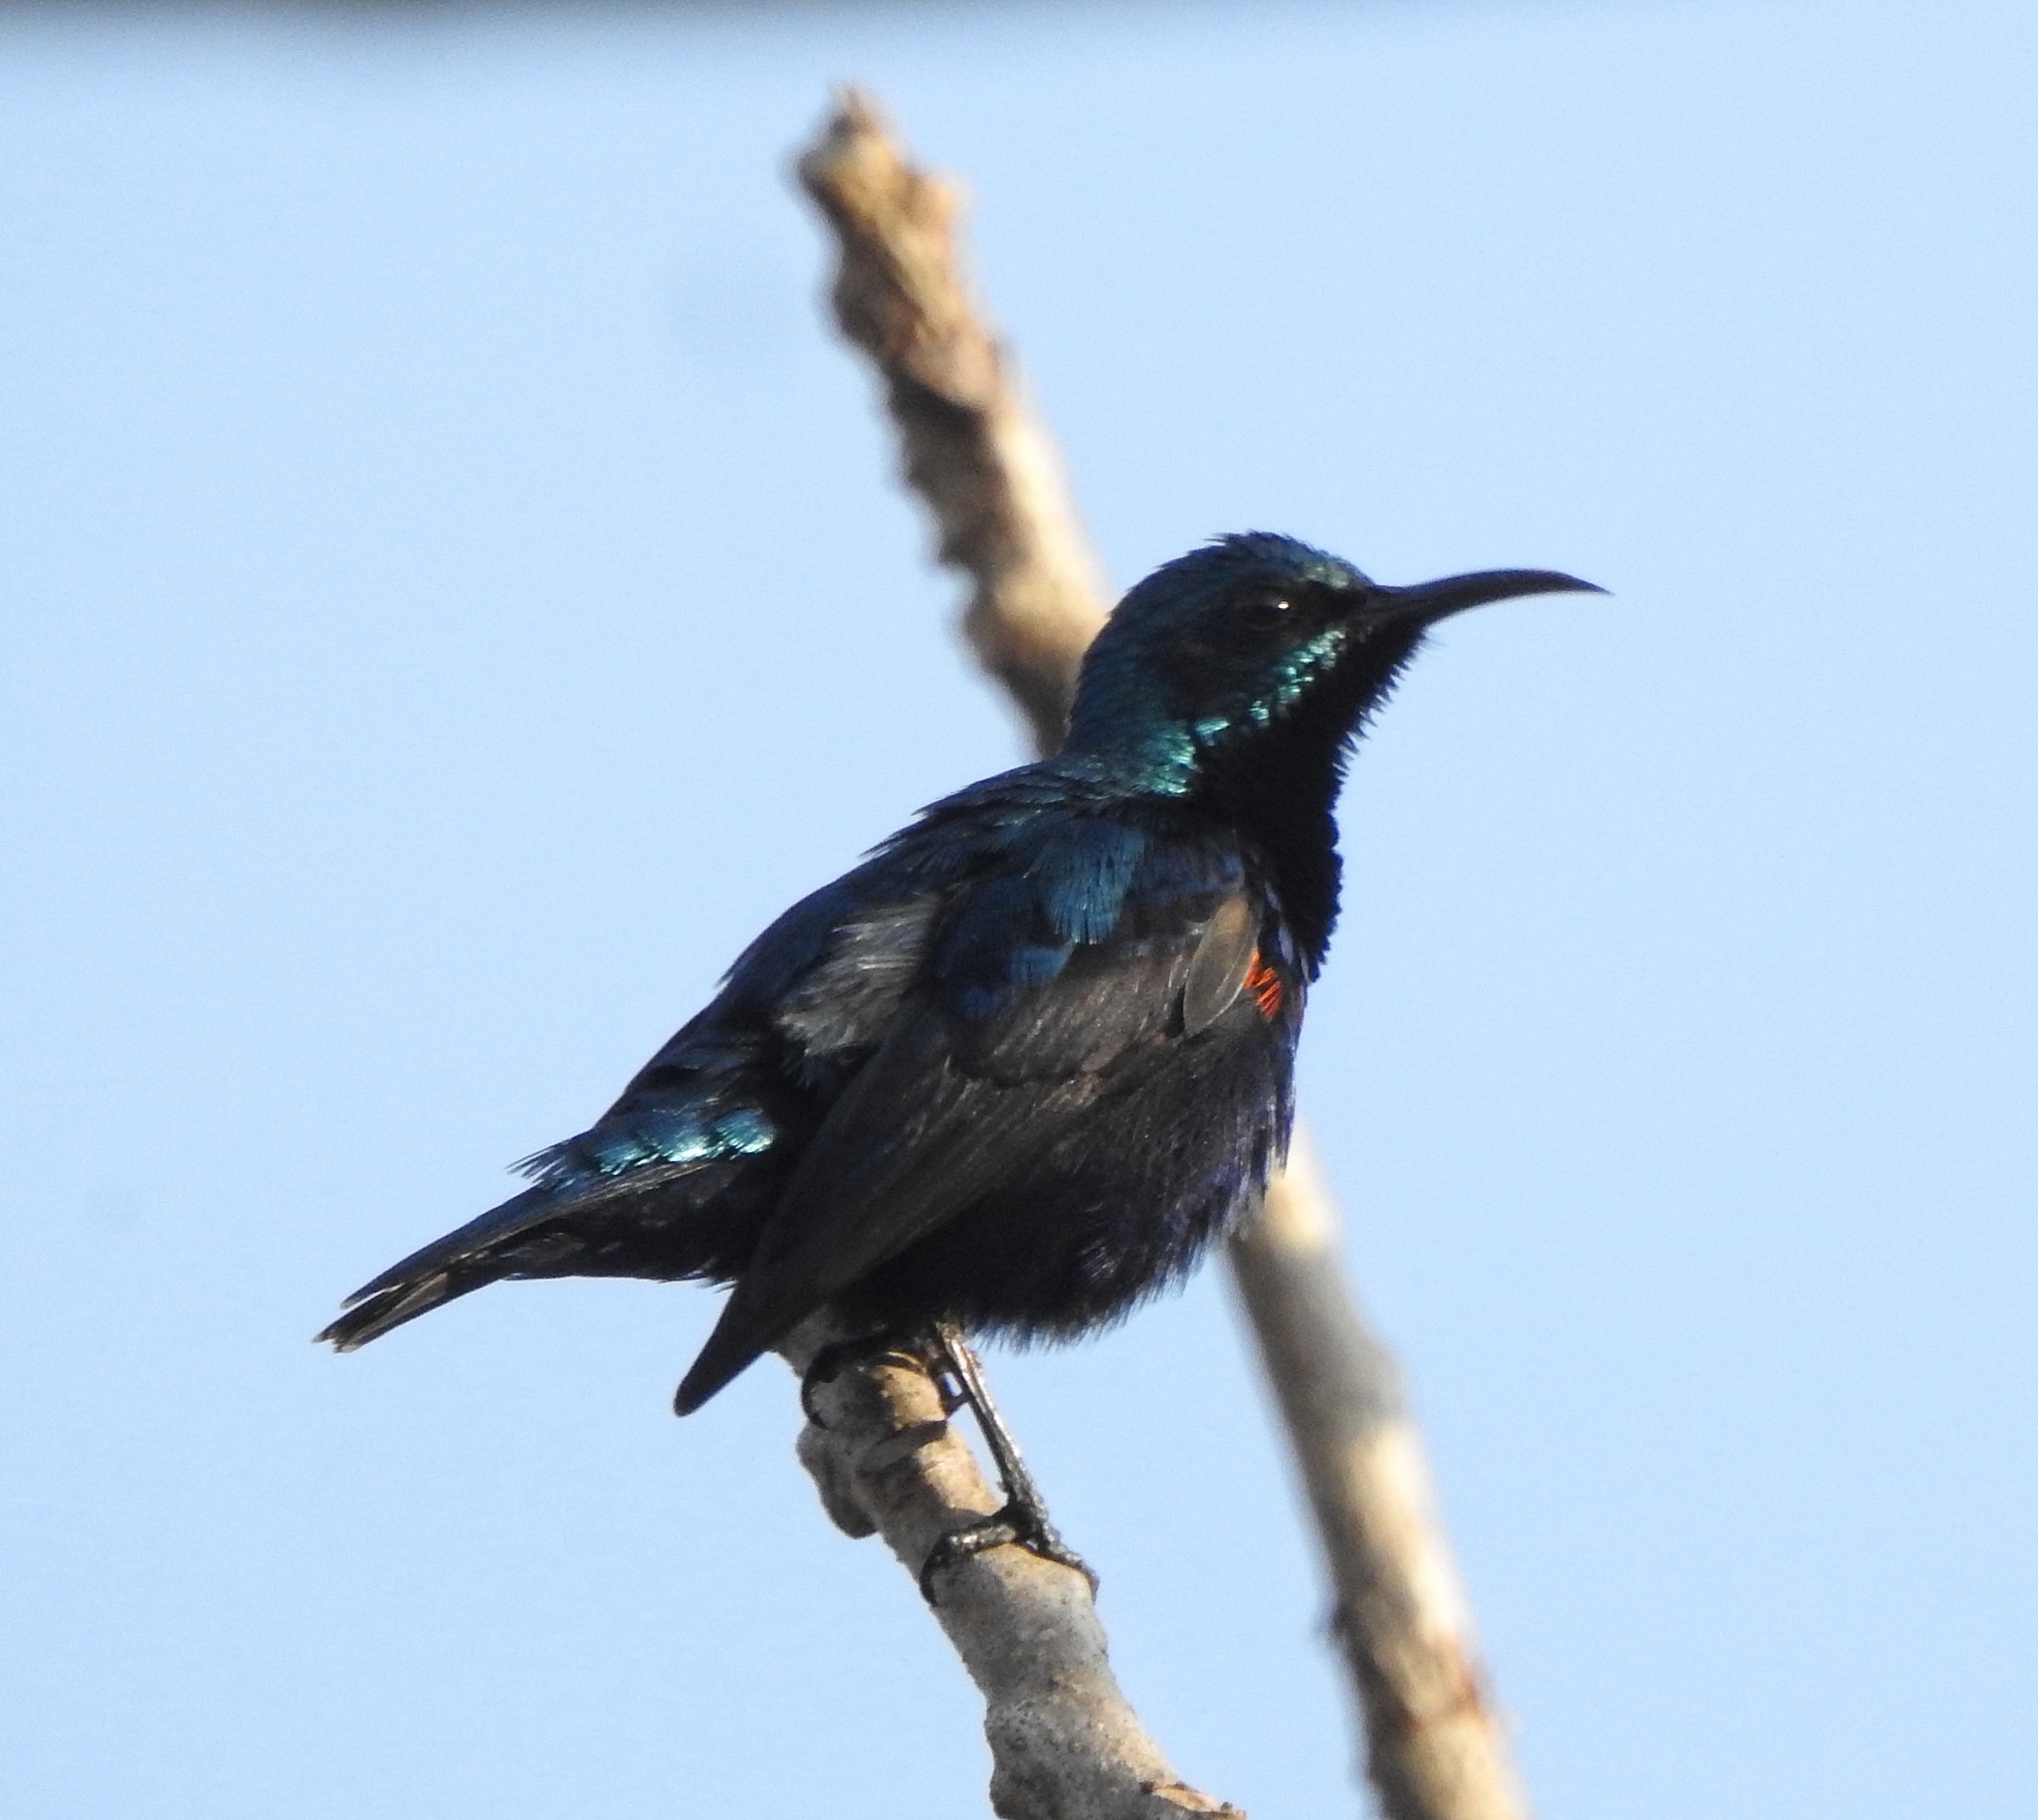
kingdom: Animalia
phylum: Chordata
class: Aves
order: Passeriformes
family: Nectariniidae
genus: Cinnyris
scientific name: Cinnyris asiaticus
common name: Purple sunbird
